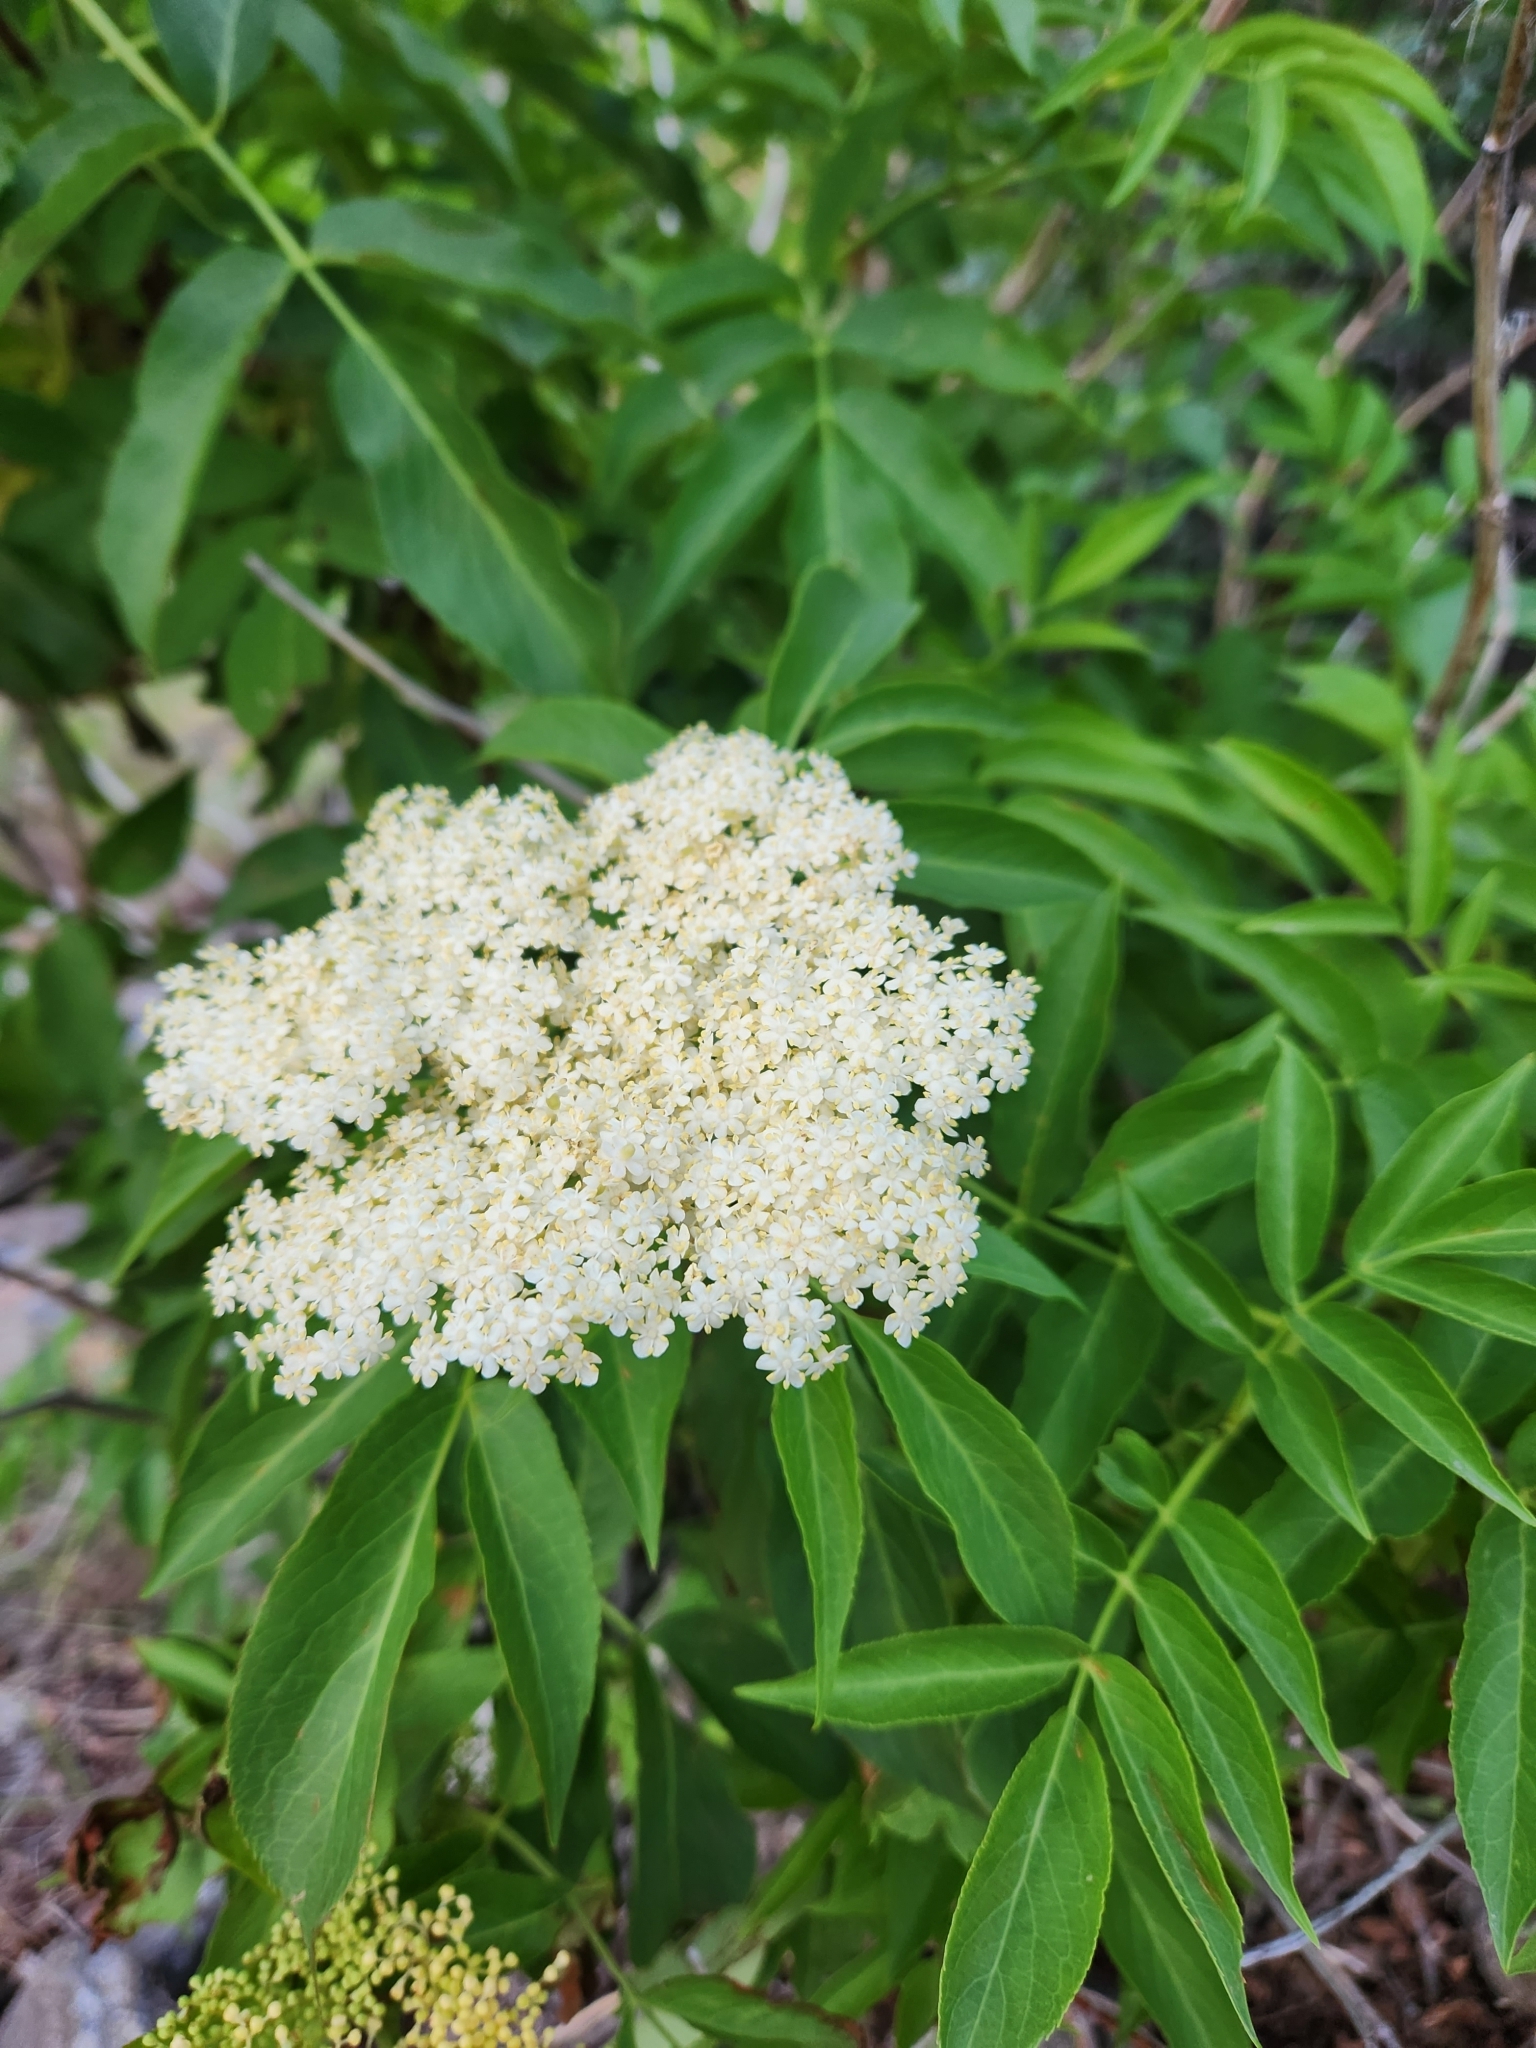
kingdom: Plantae
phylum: Tracheophyta
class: Magnoliopsida
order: Dipsacales
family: Viburnaceae
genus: Sambucus
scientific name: Sambucus cerulea
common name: Blue elder
